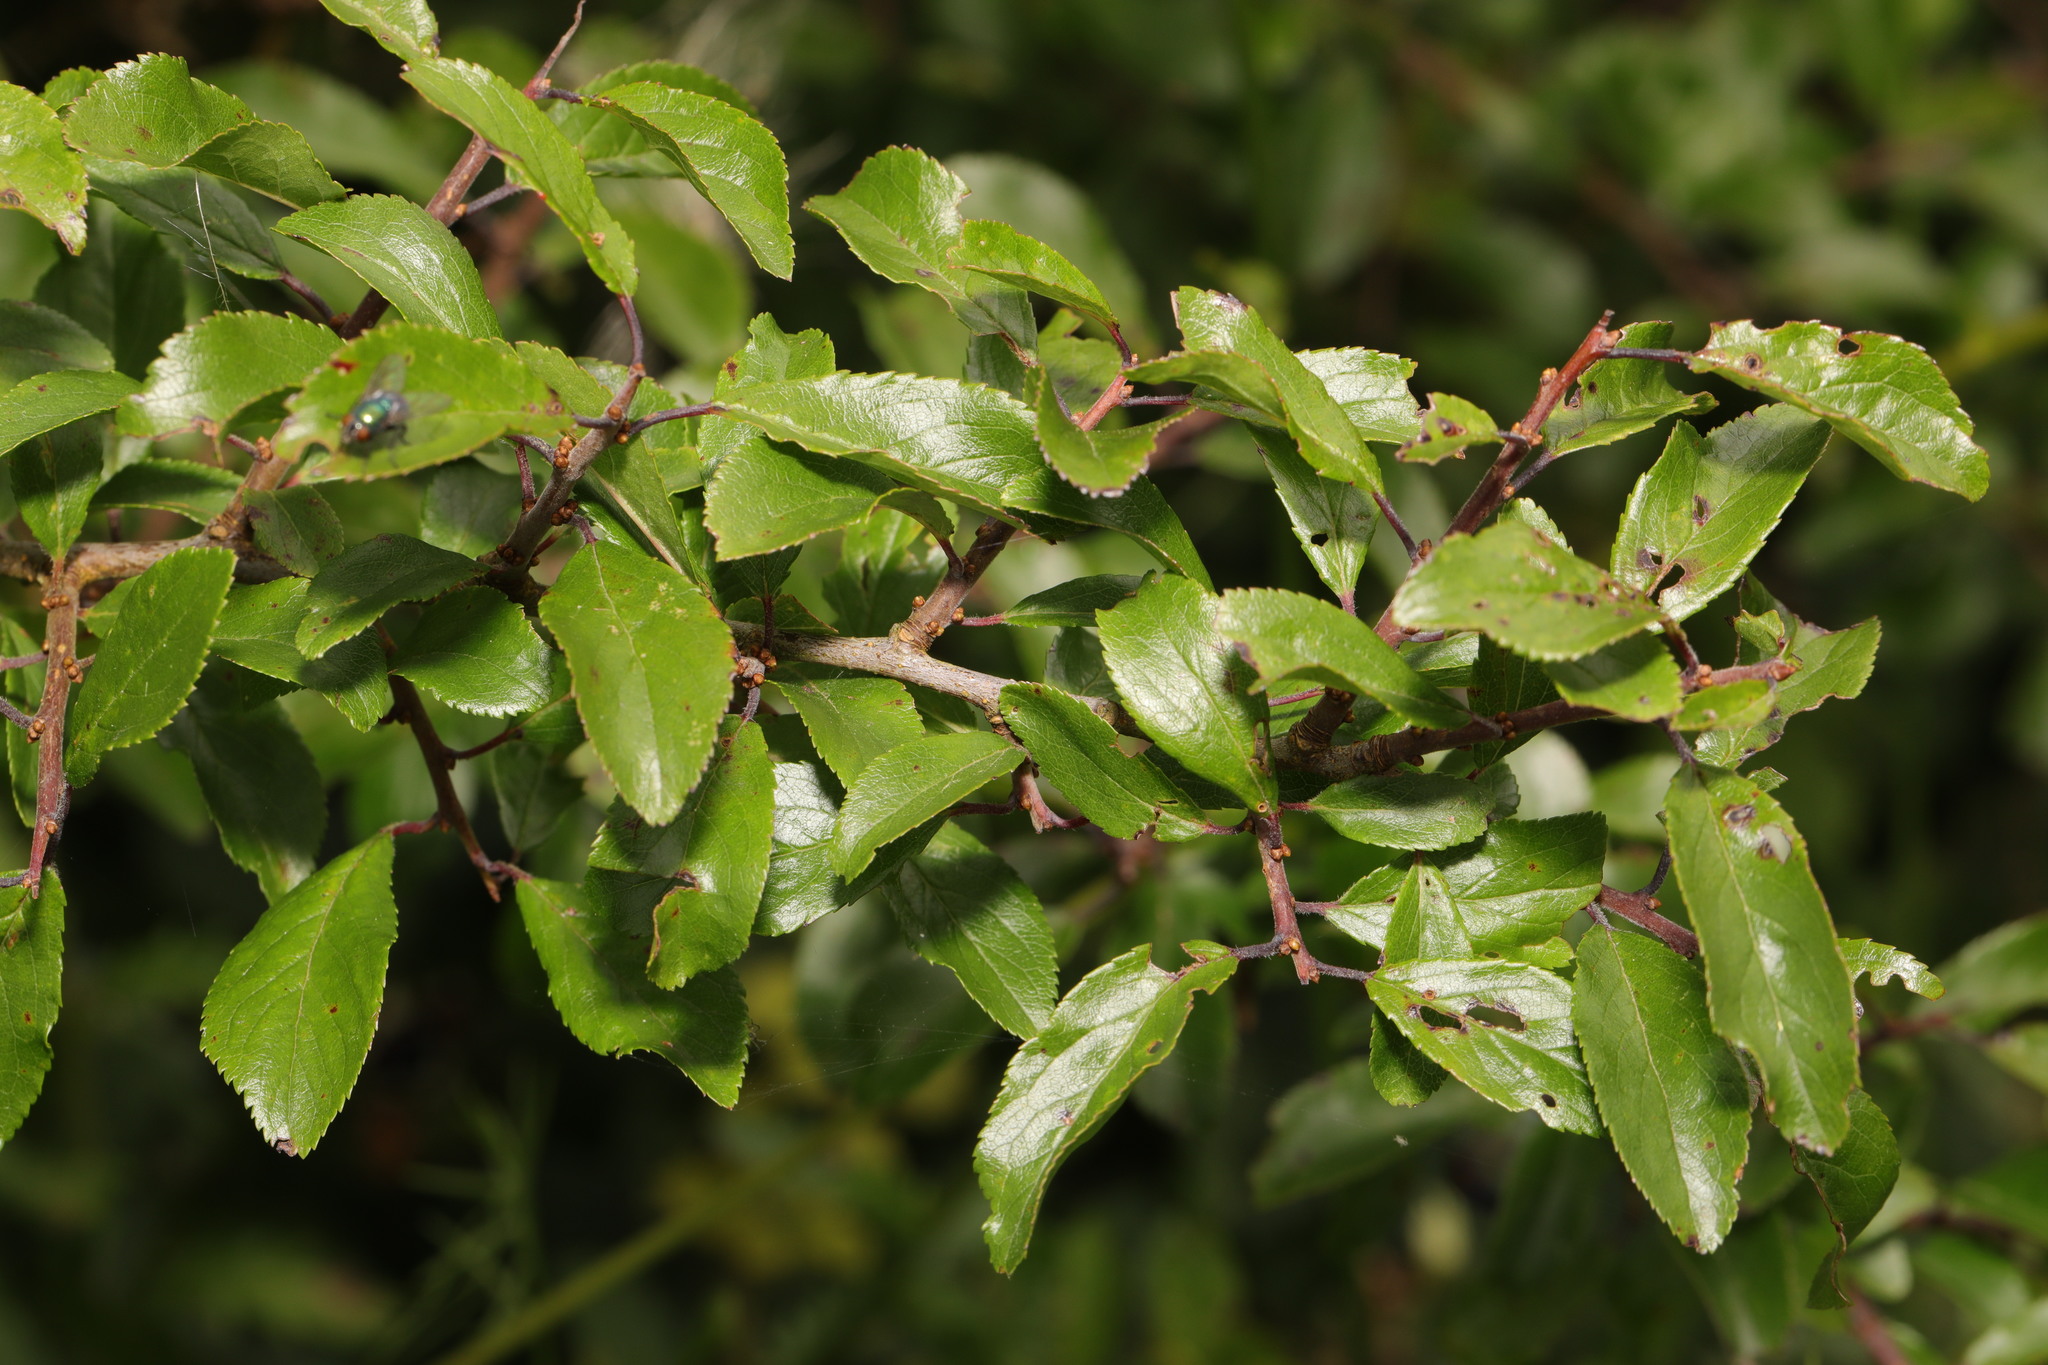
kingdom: Plantae
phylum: Tracheophyta
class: Magnoliopsida
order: Rosales
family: Rosaceae
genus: Prunus
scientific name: Prunus spinosa
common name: Blackthorn
